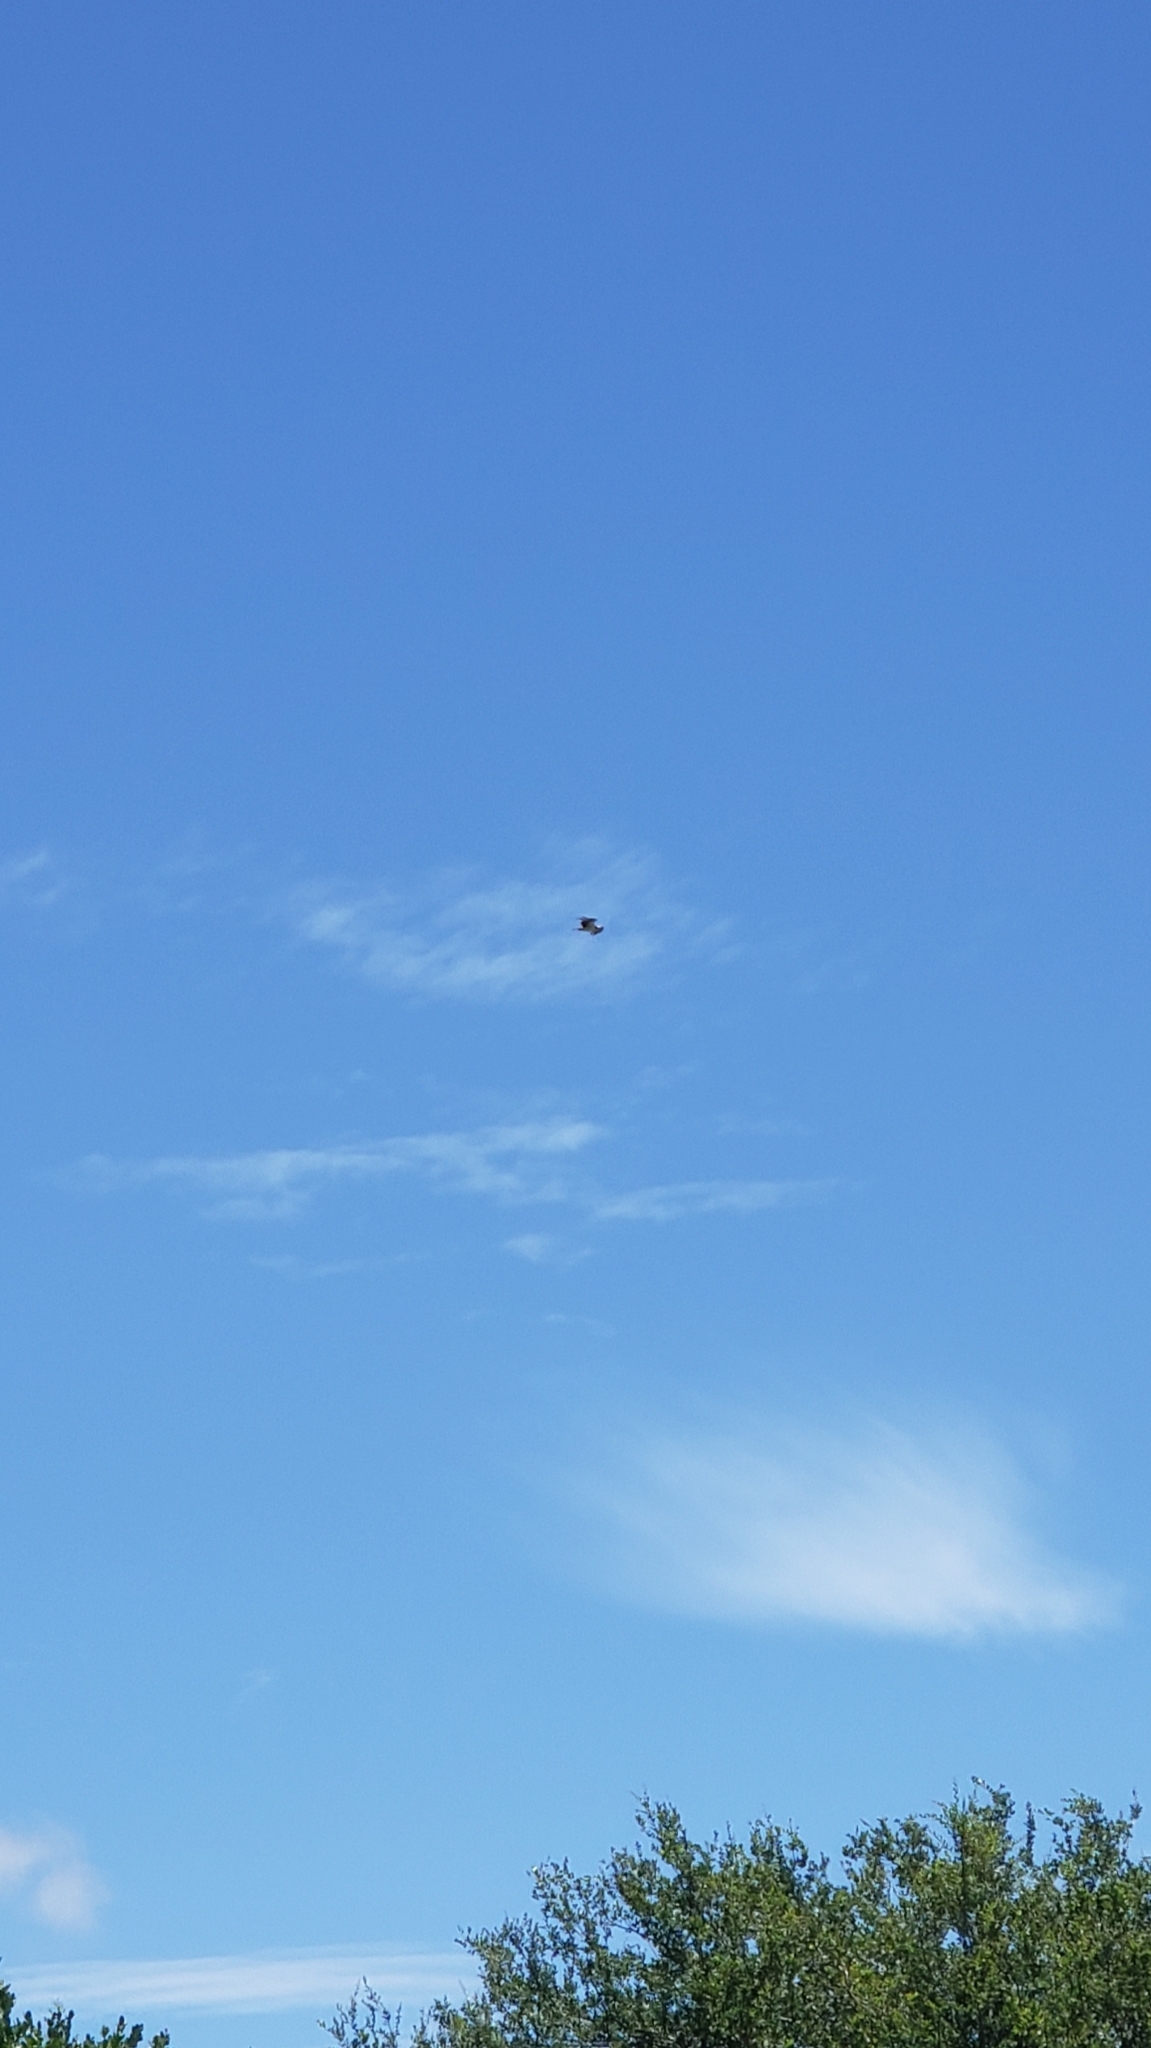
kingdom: Animalia
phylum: Chordata
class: Aves
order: Accipitriformes
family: Pandionidae
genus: Pandion
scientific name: Pandion haliaetus
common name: Osprey
